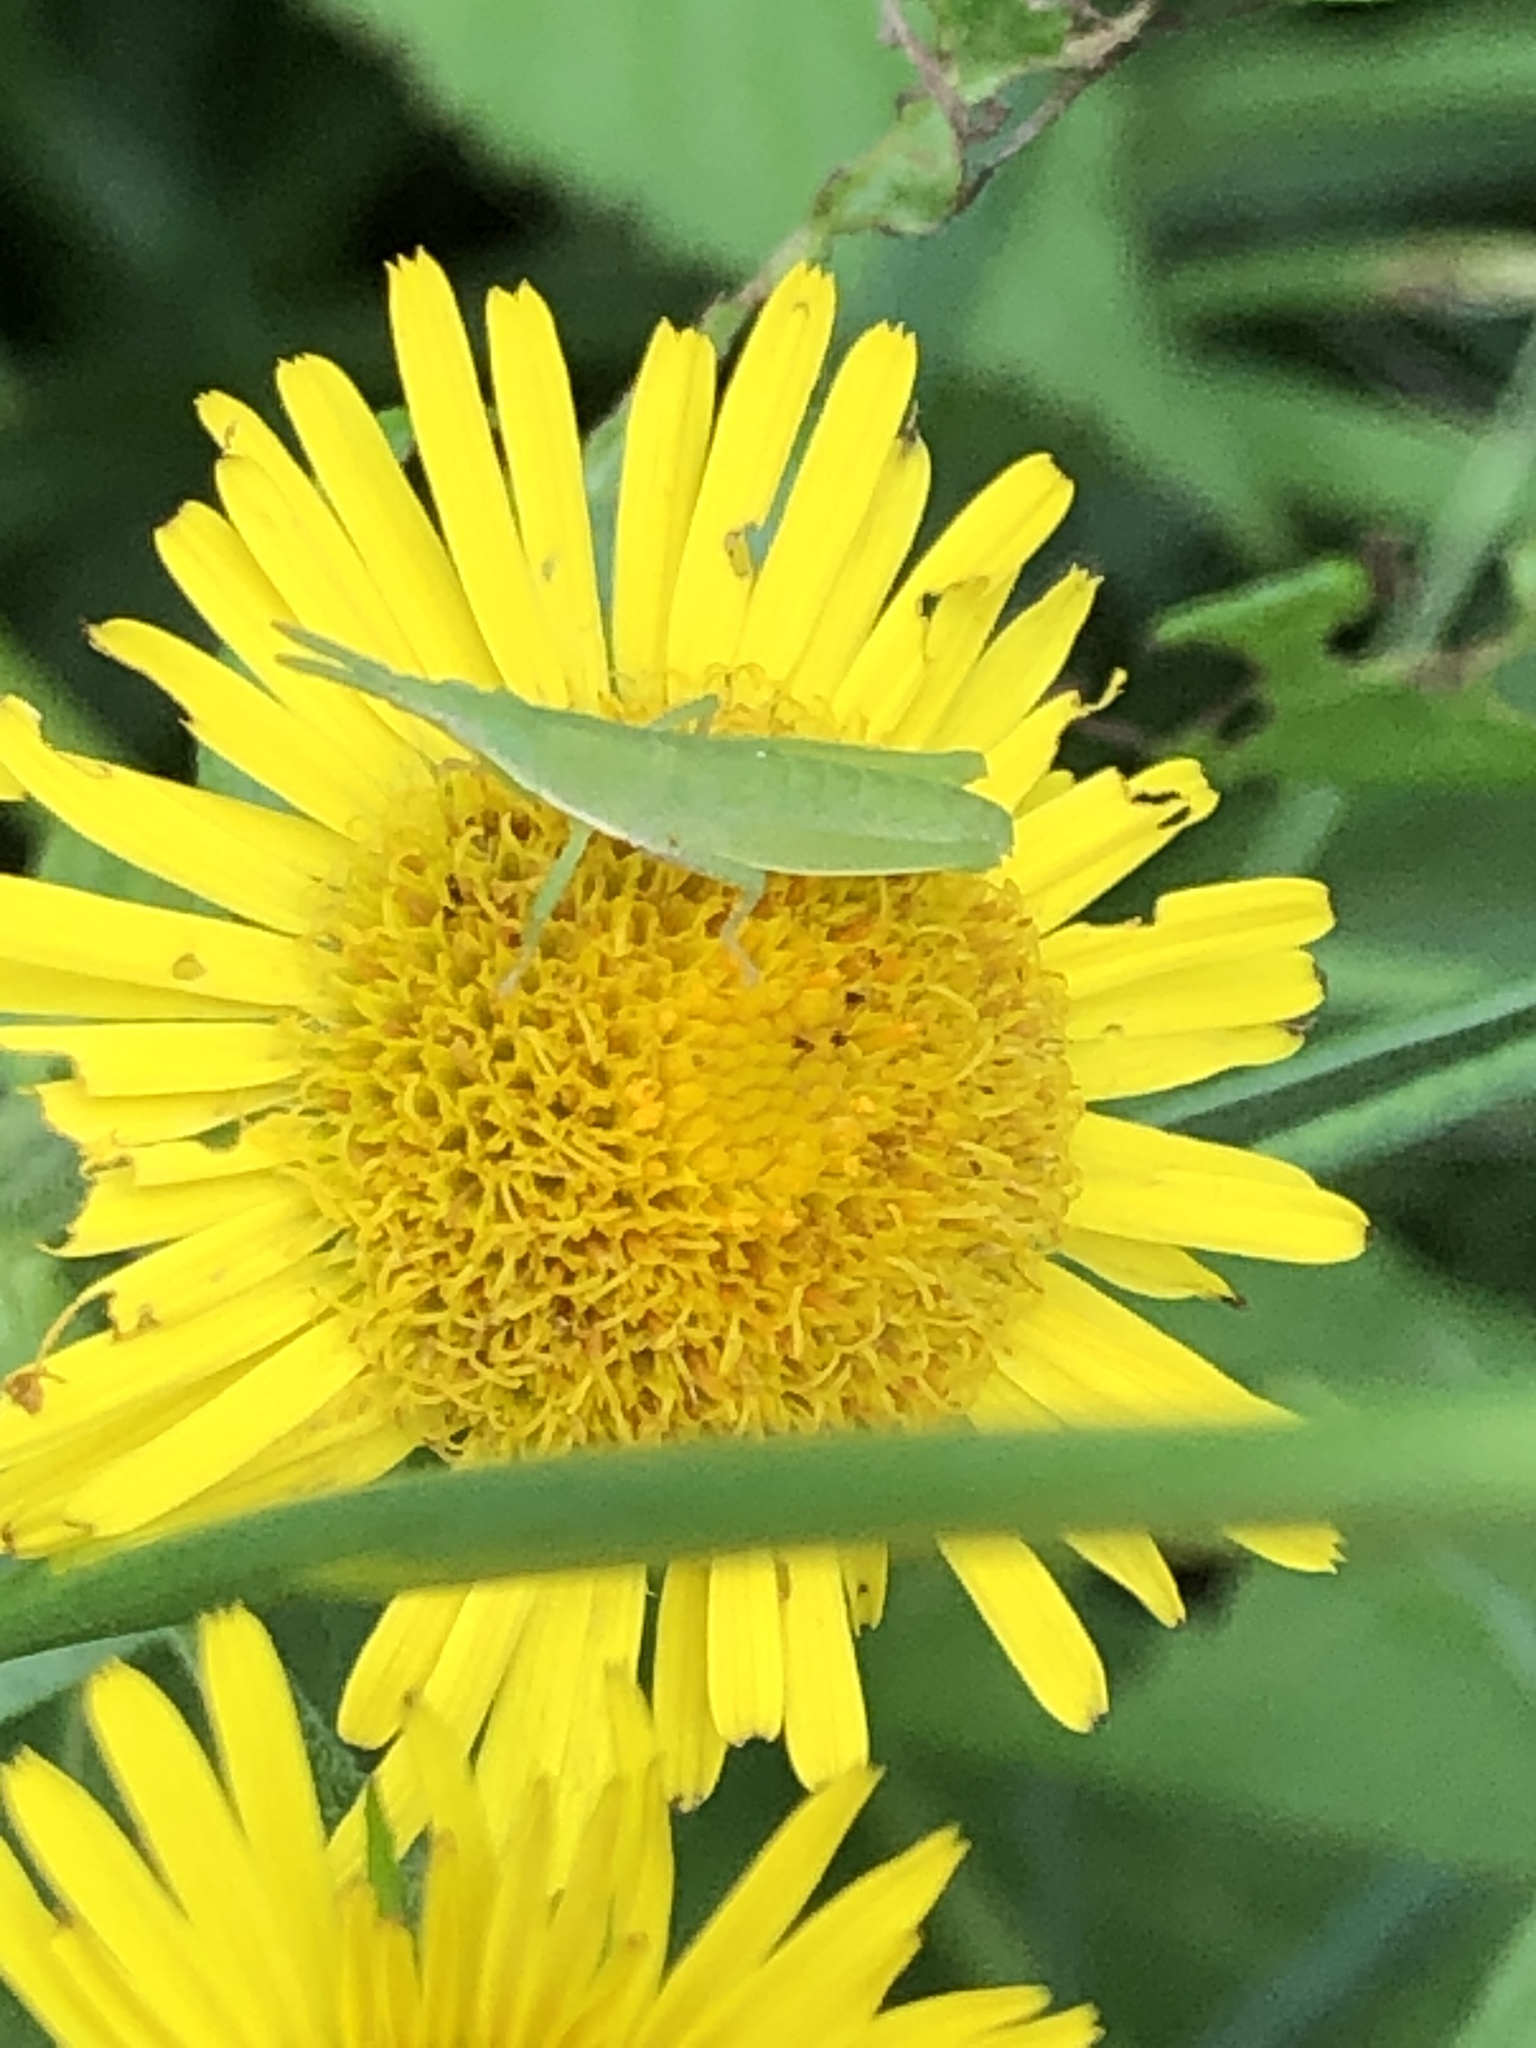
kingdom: Animalia
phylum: Arthropoda
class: Insecta
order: Orthoptera
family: Pyrgomorphidae
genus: Atractomorpha
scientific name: Atractomorpha lata
